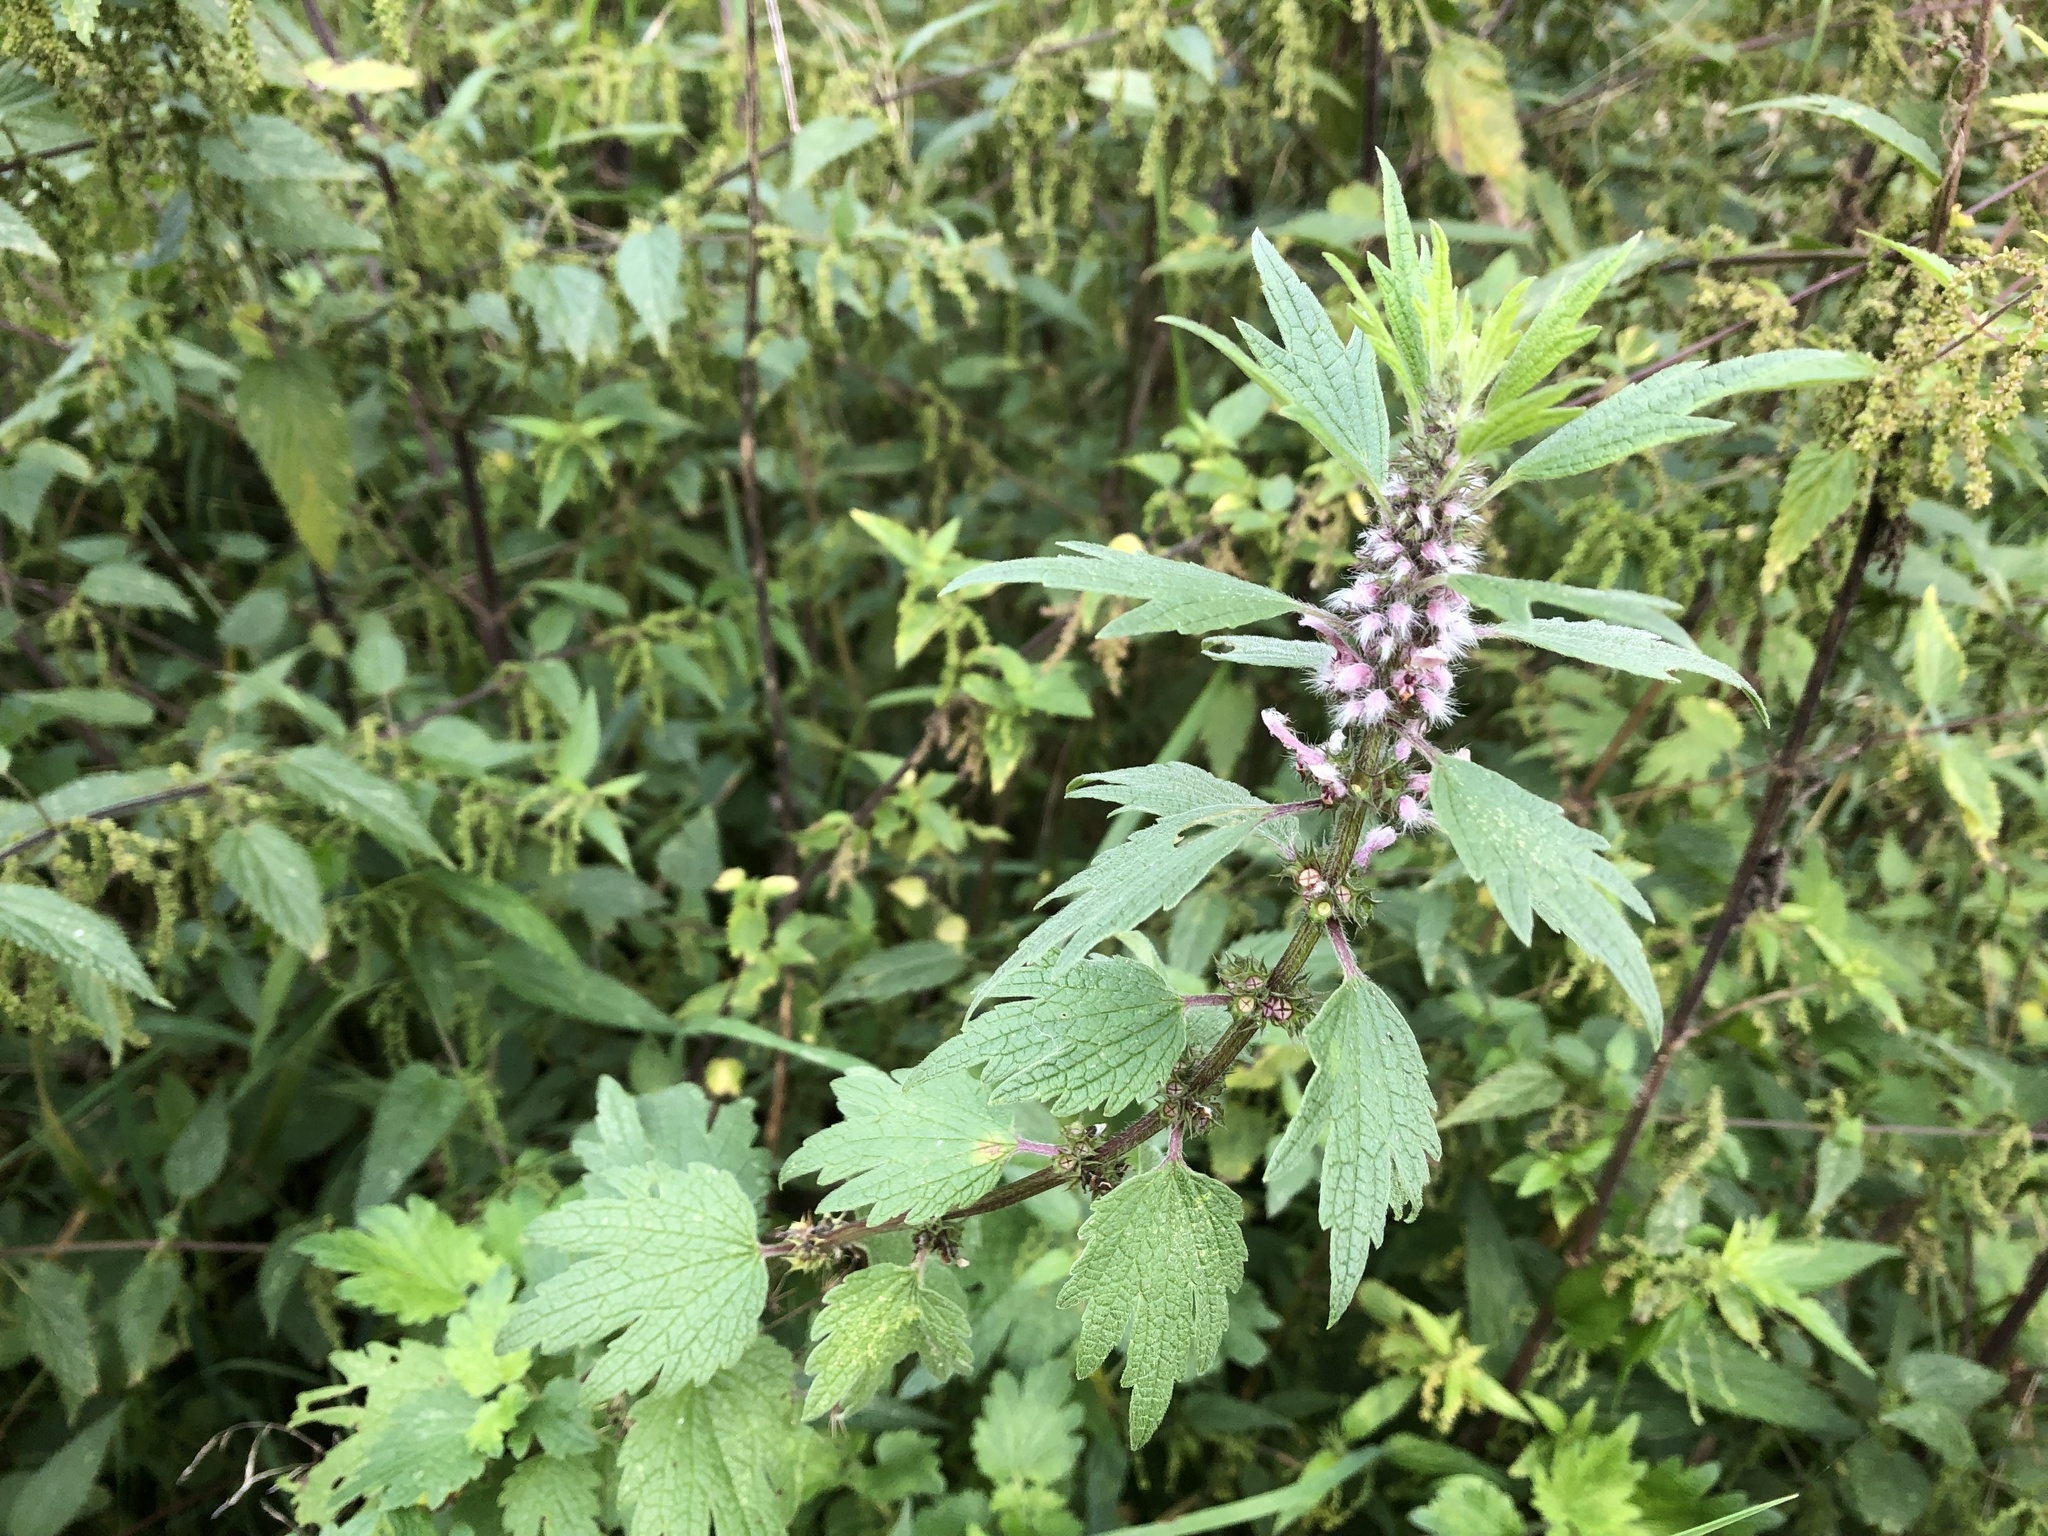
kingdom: Plantae
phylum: Tracheophyta
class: Magnoliopsida
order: Lamiales
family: Lamiaceae
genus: Leonurus
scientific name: Leonurus cardiaca
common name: Motherwort
